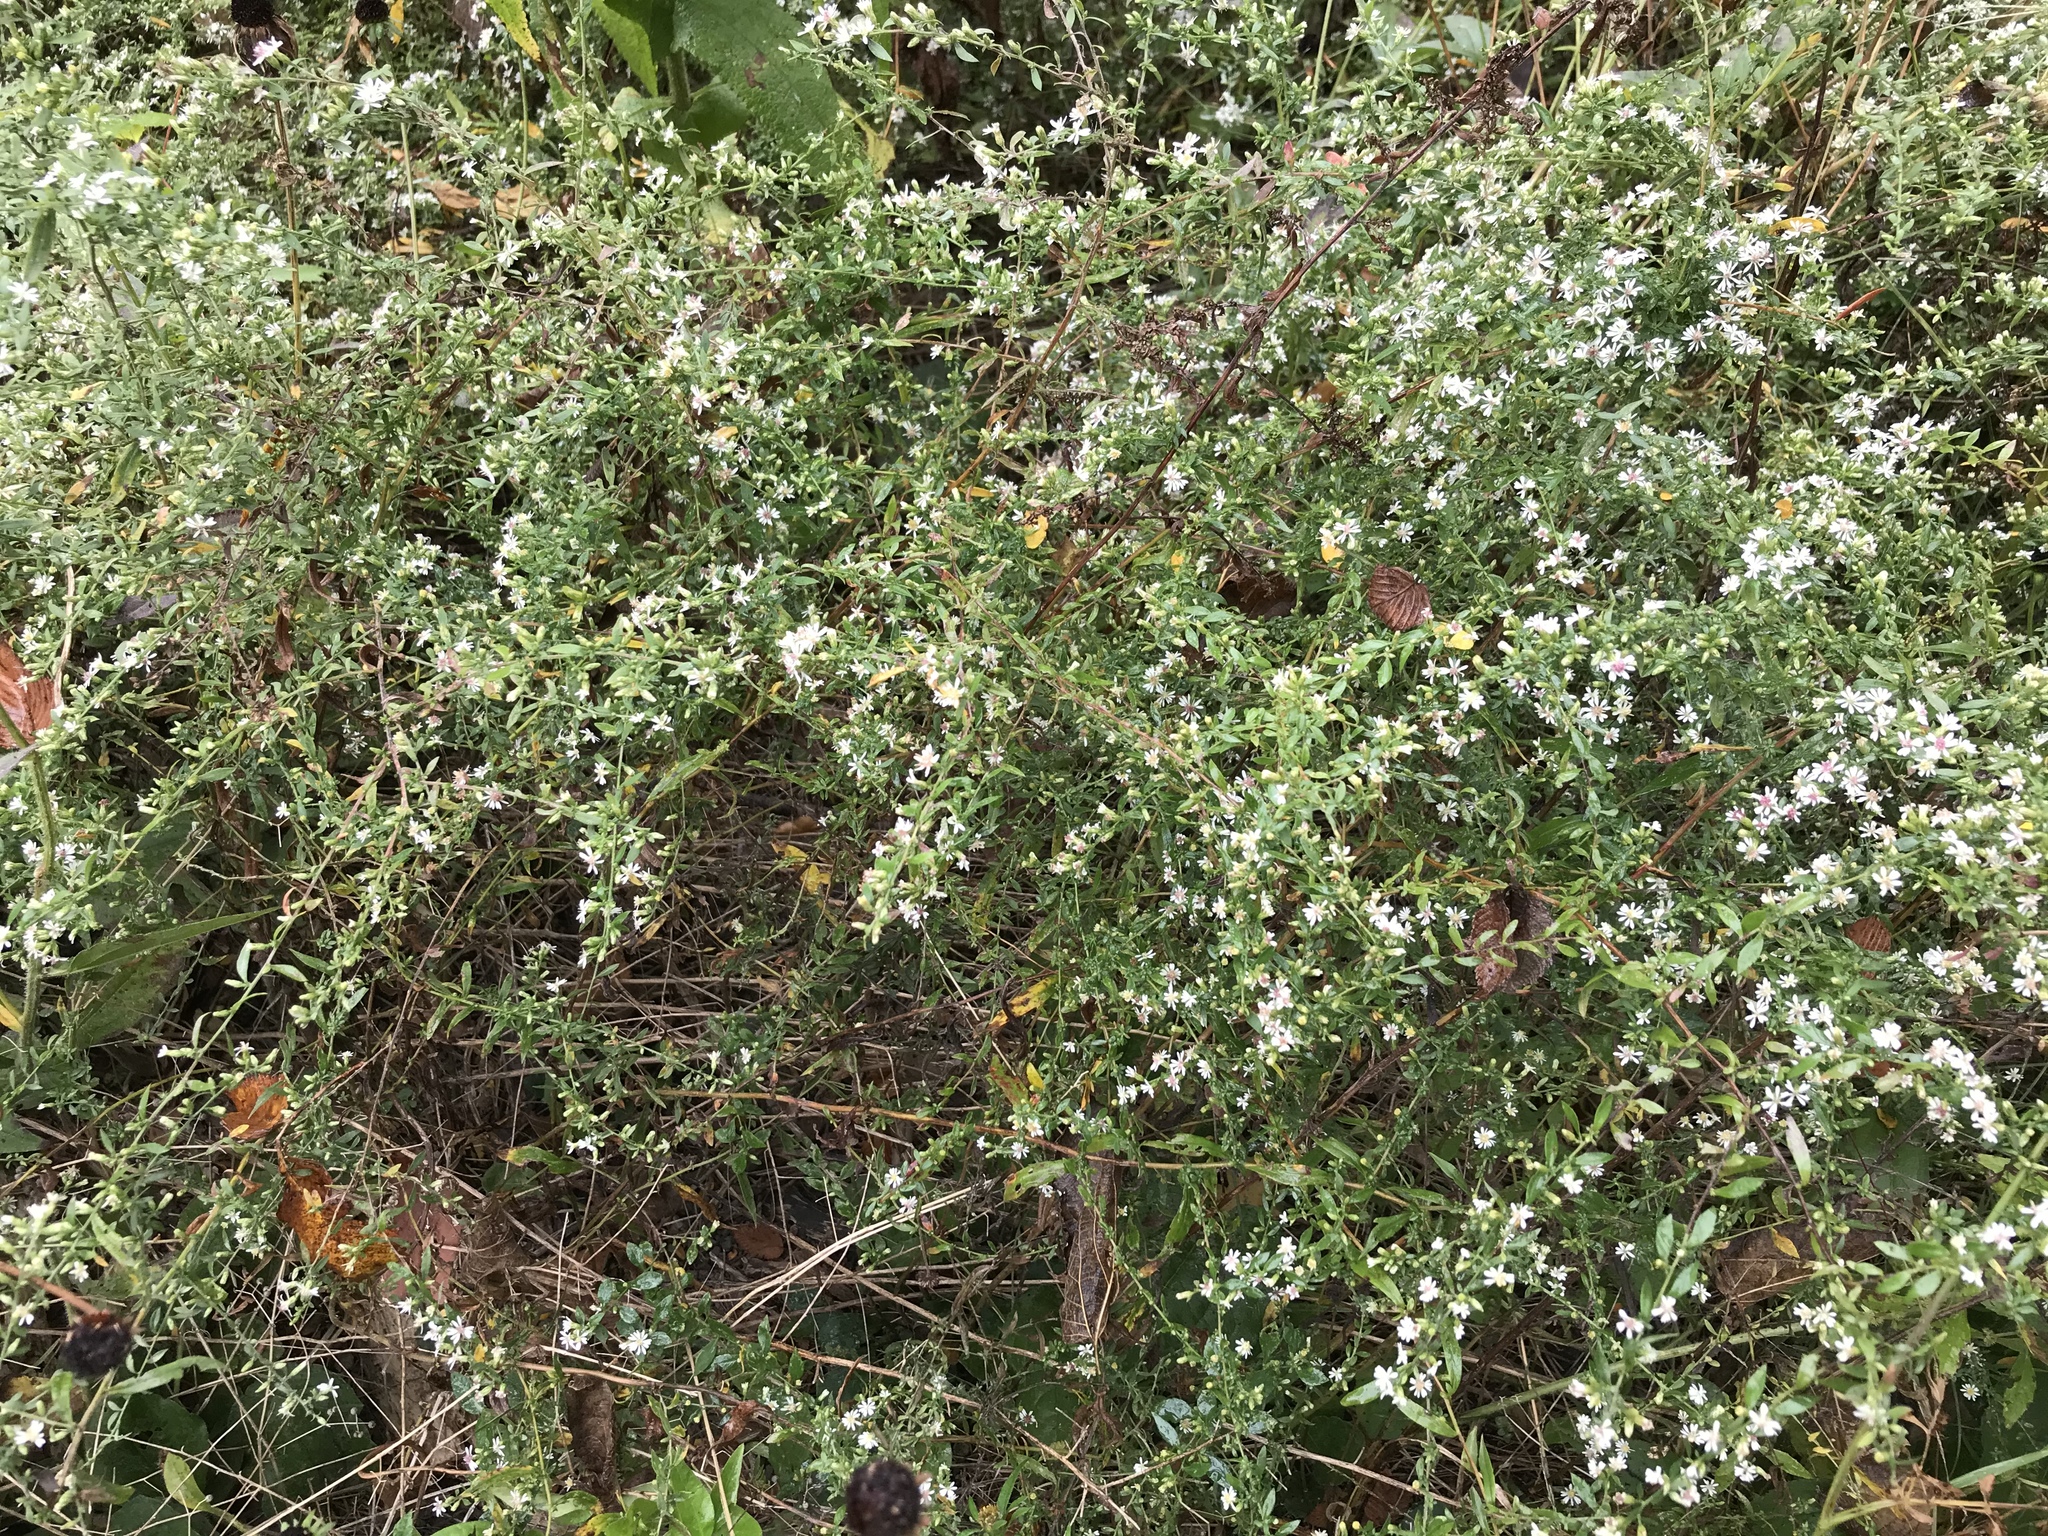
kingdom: Plantae
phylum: Tracheophyta
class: Magnoliopsida
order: Asterales
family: Asteraceae
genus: Symphyotrichum
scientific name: Symphyotrichum lateriflorum
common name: Calico aster
